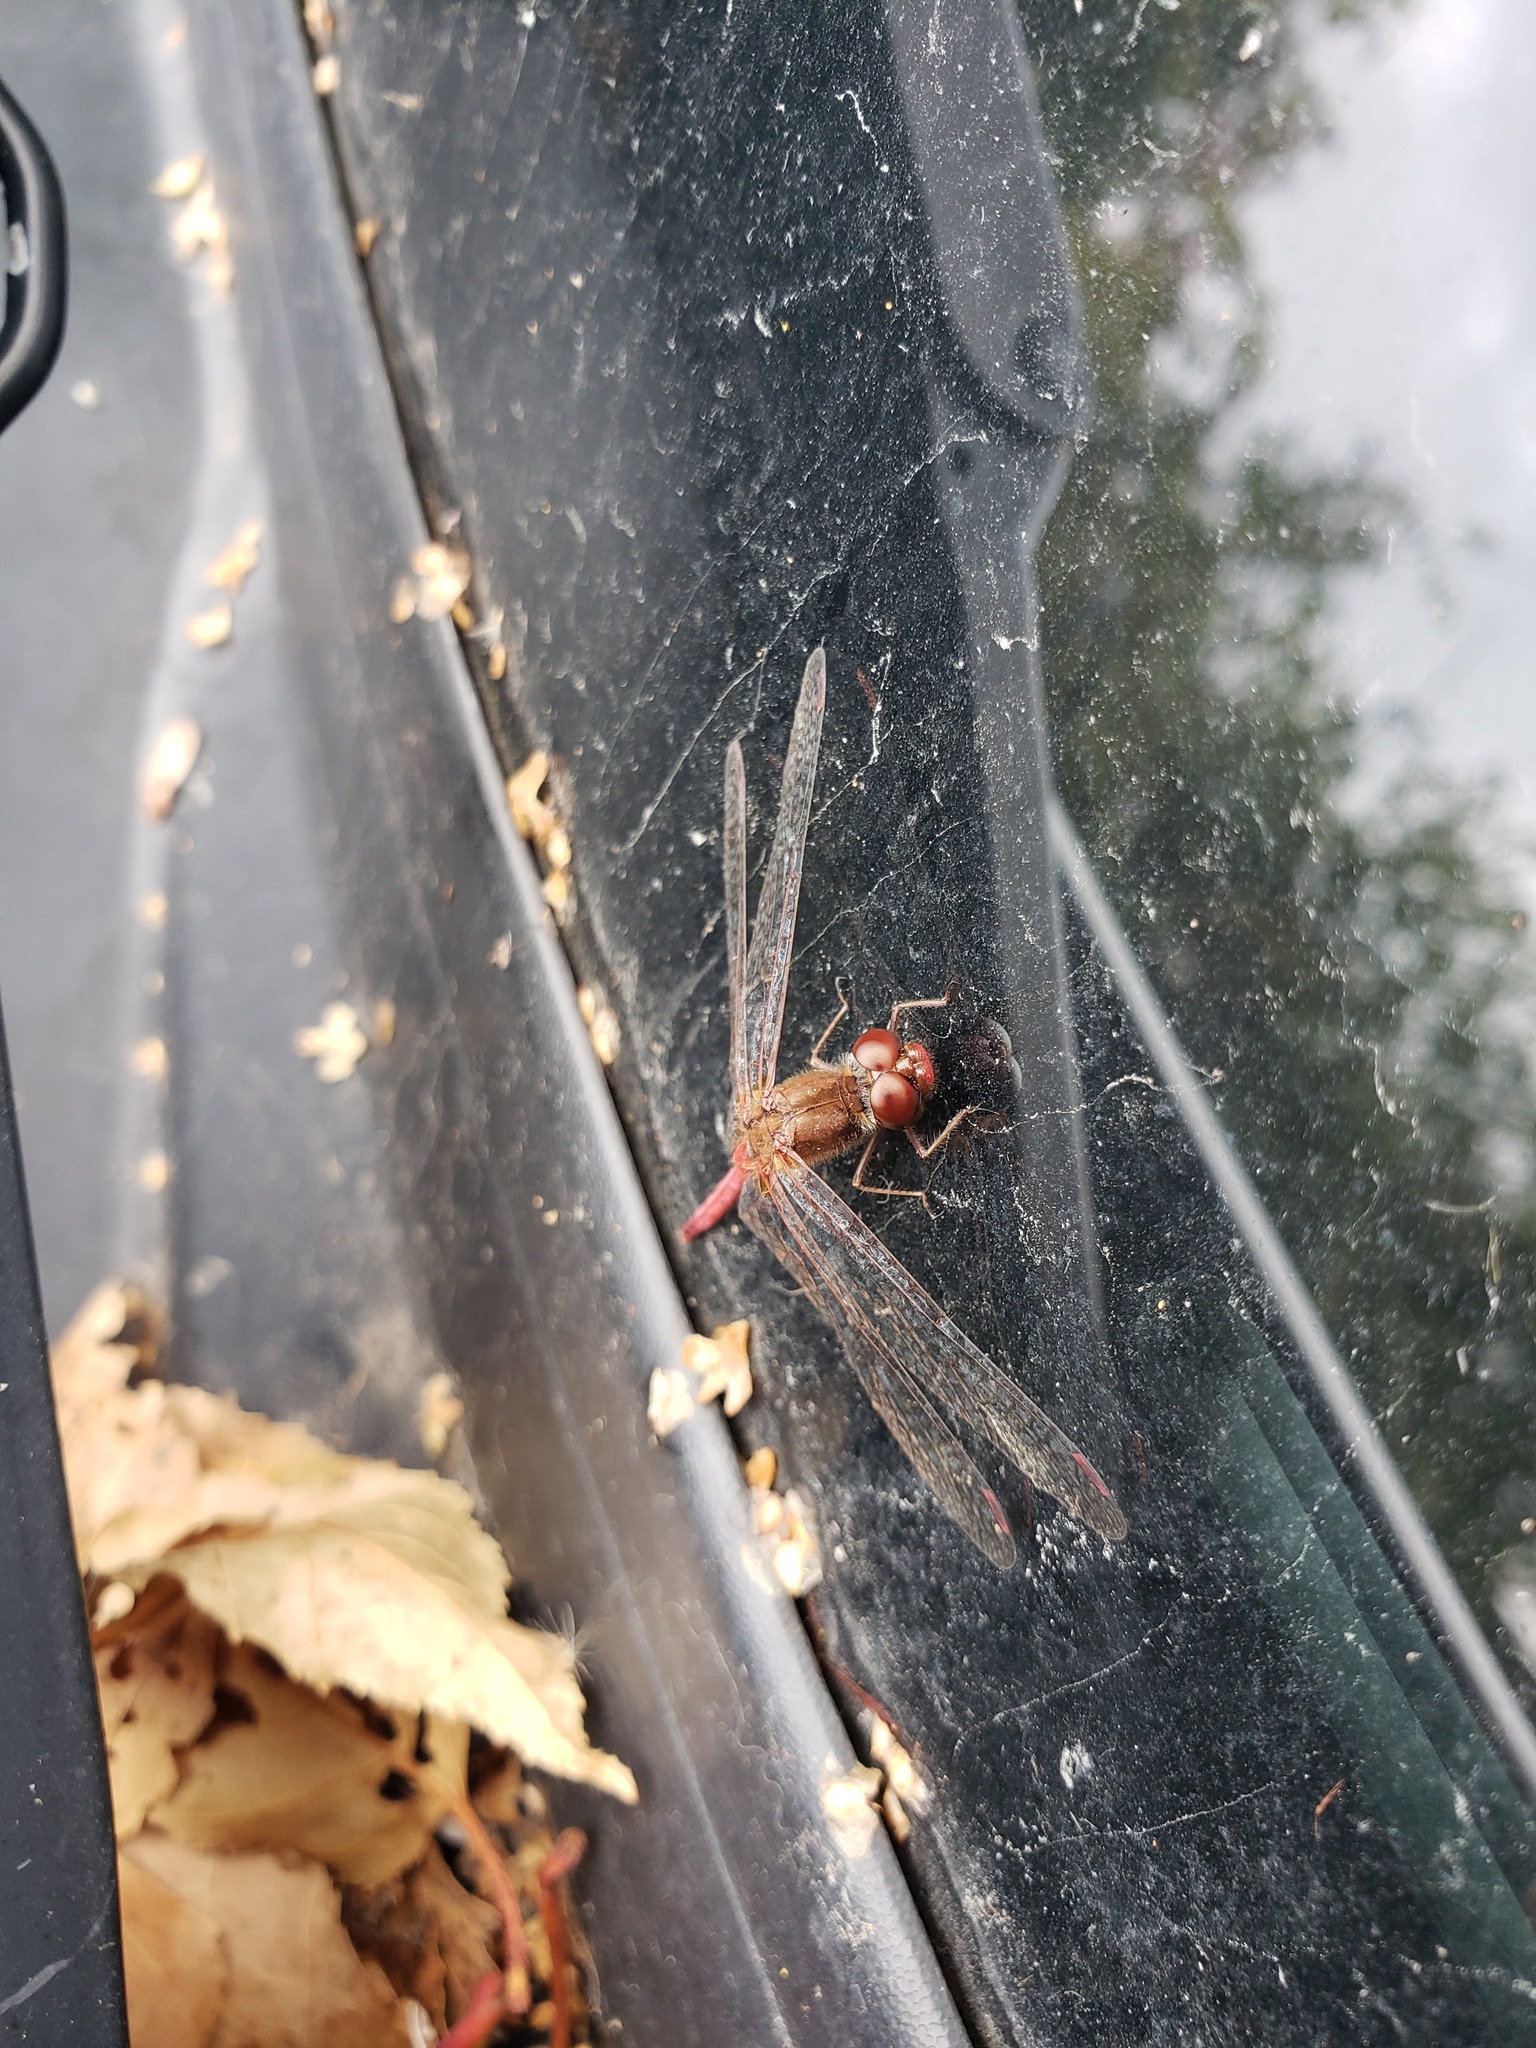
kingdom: Animalia
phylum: Arthropoda
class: Insecta
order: Odonata
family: Libellulidae
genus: Sympetrum
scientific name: Sympetrum vicinum
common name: Autumn meadowhawk
